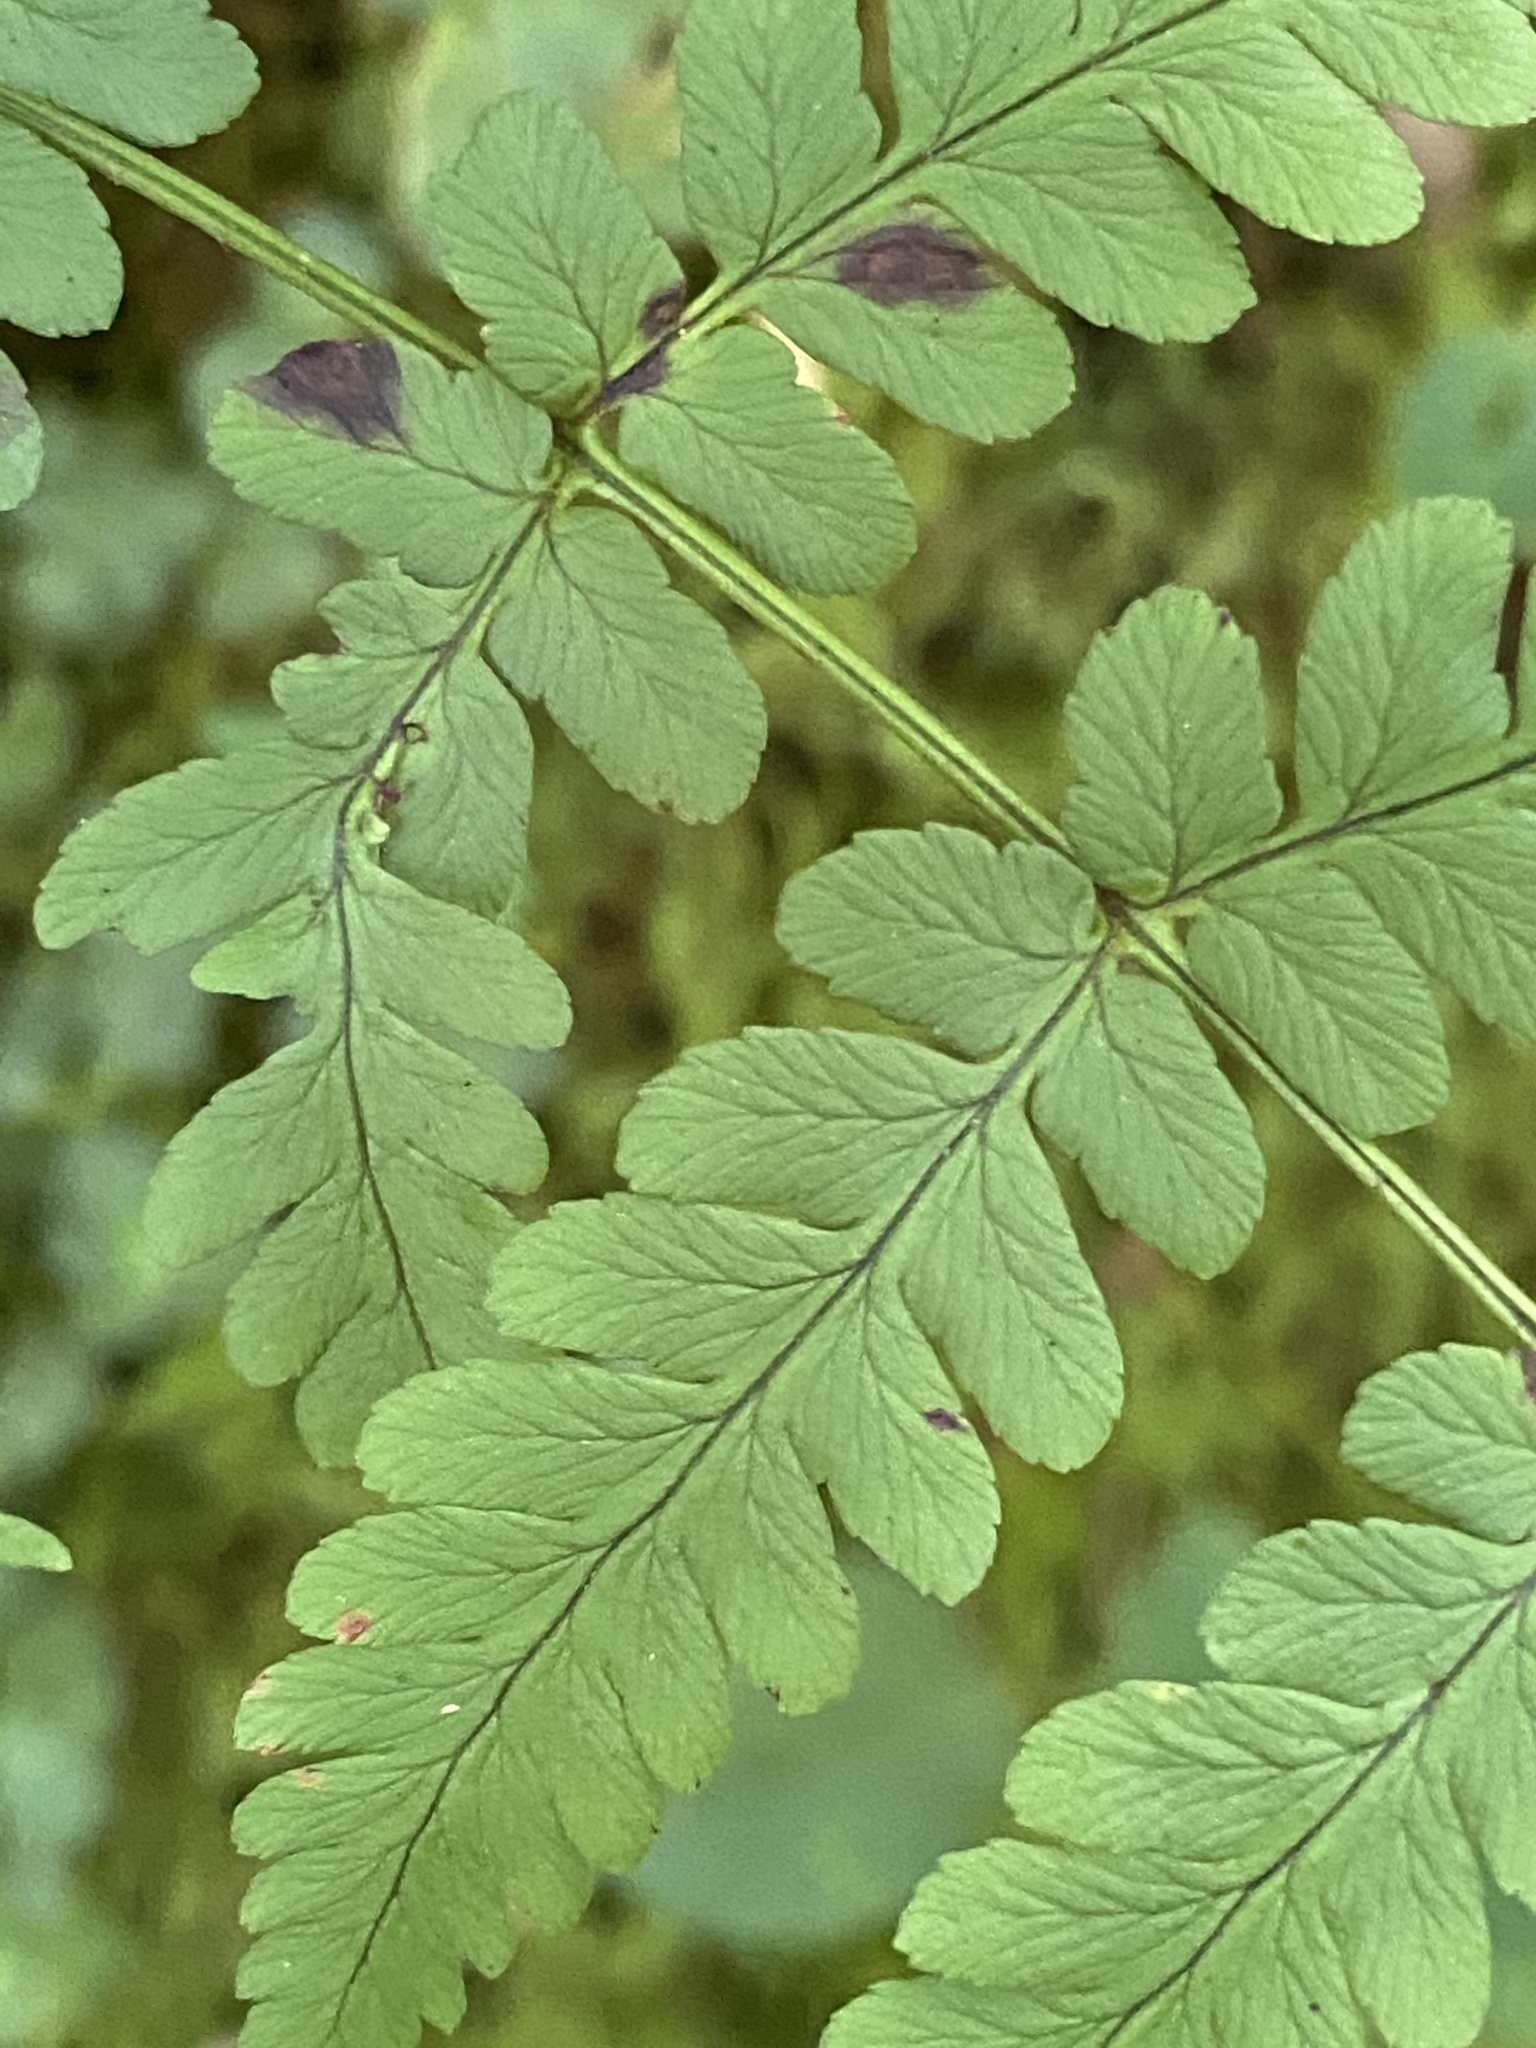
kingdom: Plantae
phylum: Tracheophyta
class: Polypodiopsida
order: Polypodiales
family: Dryopteridaceae
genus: Dryopteris
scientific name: Dryopteris marginalis
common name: Marginal wood fern
